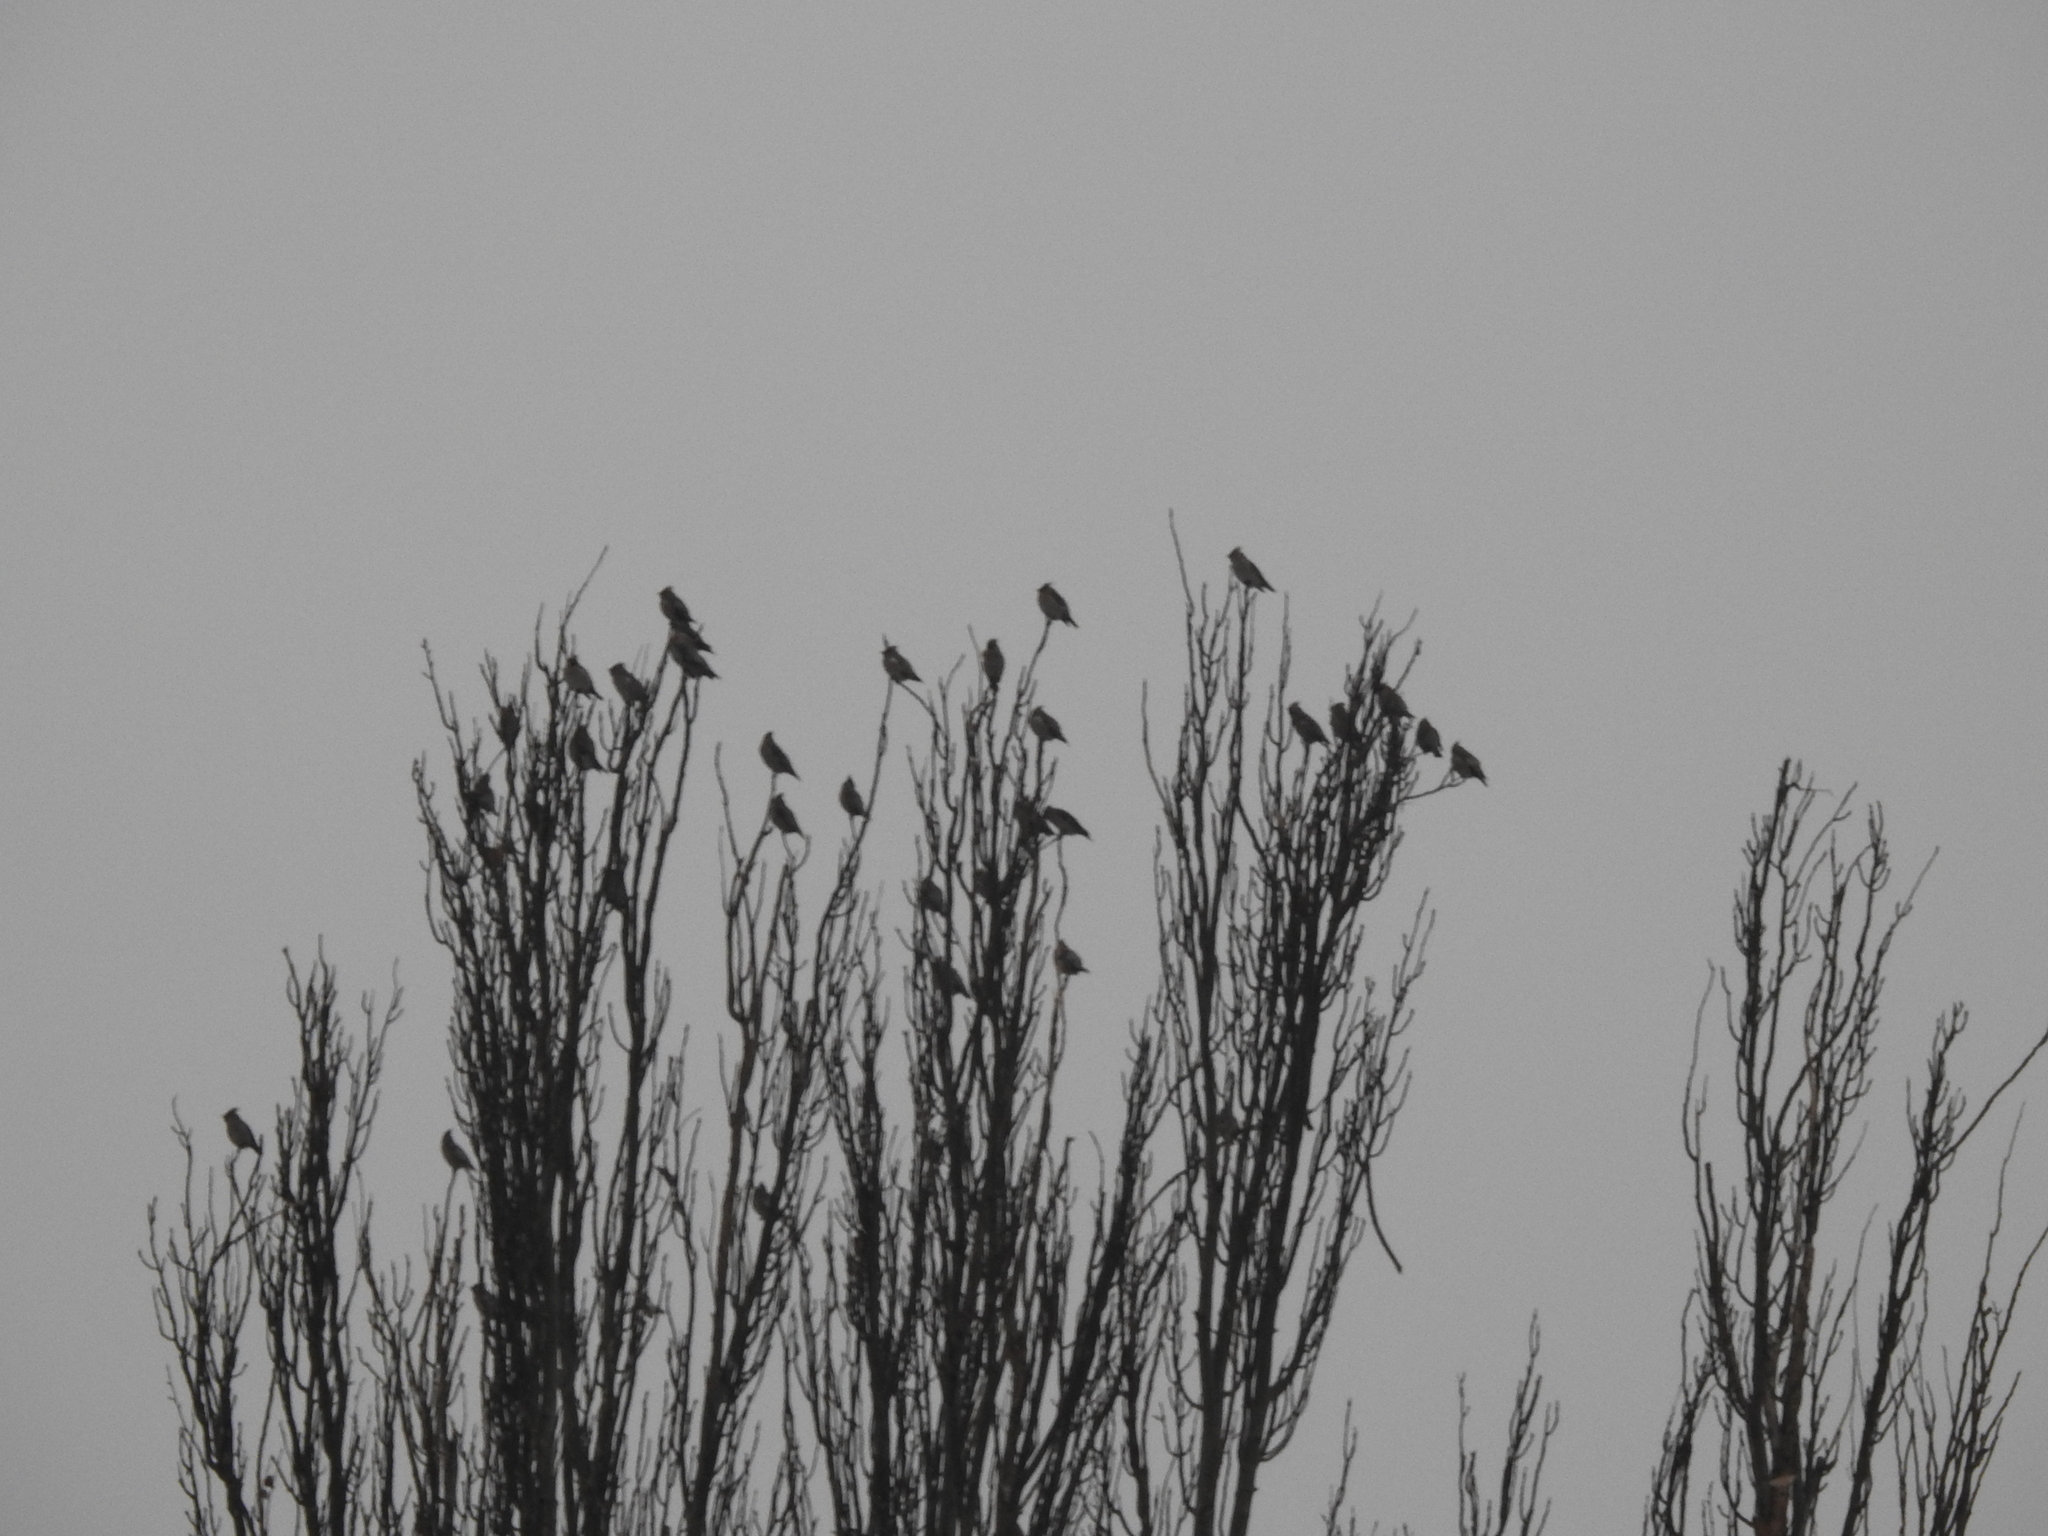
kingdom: Animalia
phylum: Chordata
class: Aves
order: Passeriformes
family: Bombycillidae
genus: Bombycilla
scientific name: Bombycilla garrulus
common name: Bohemian waxwing
